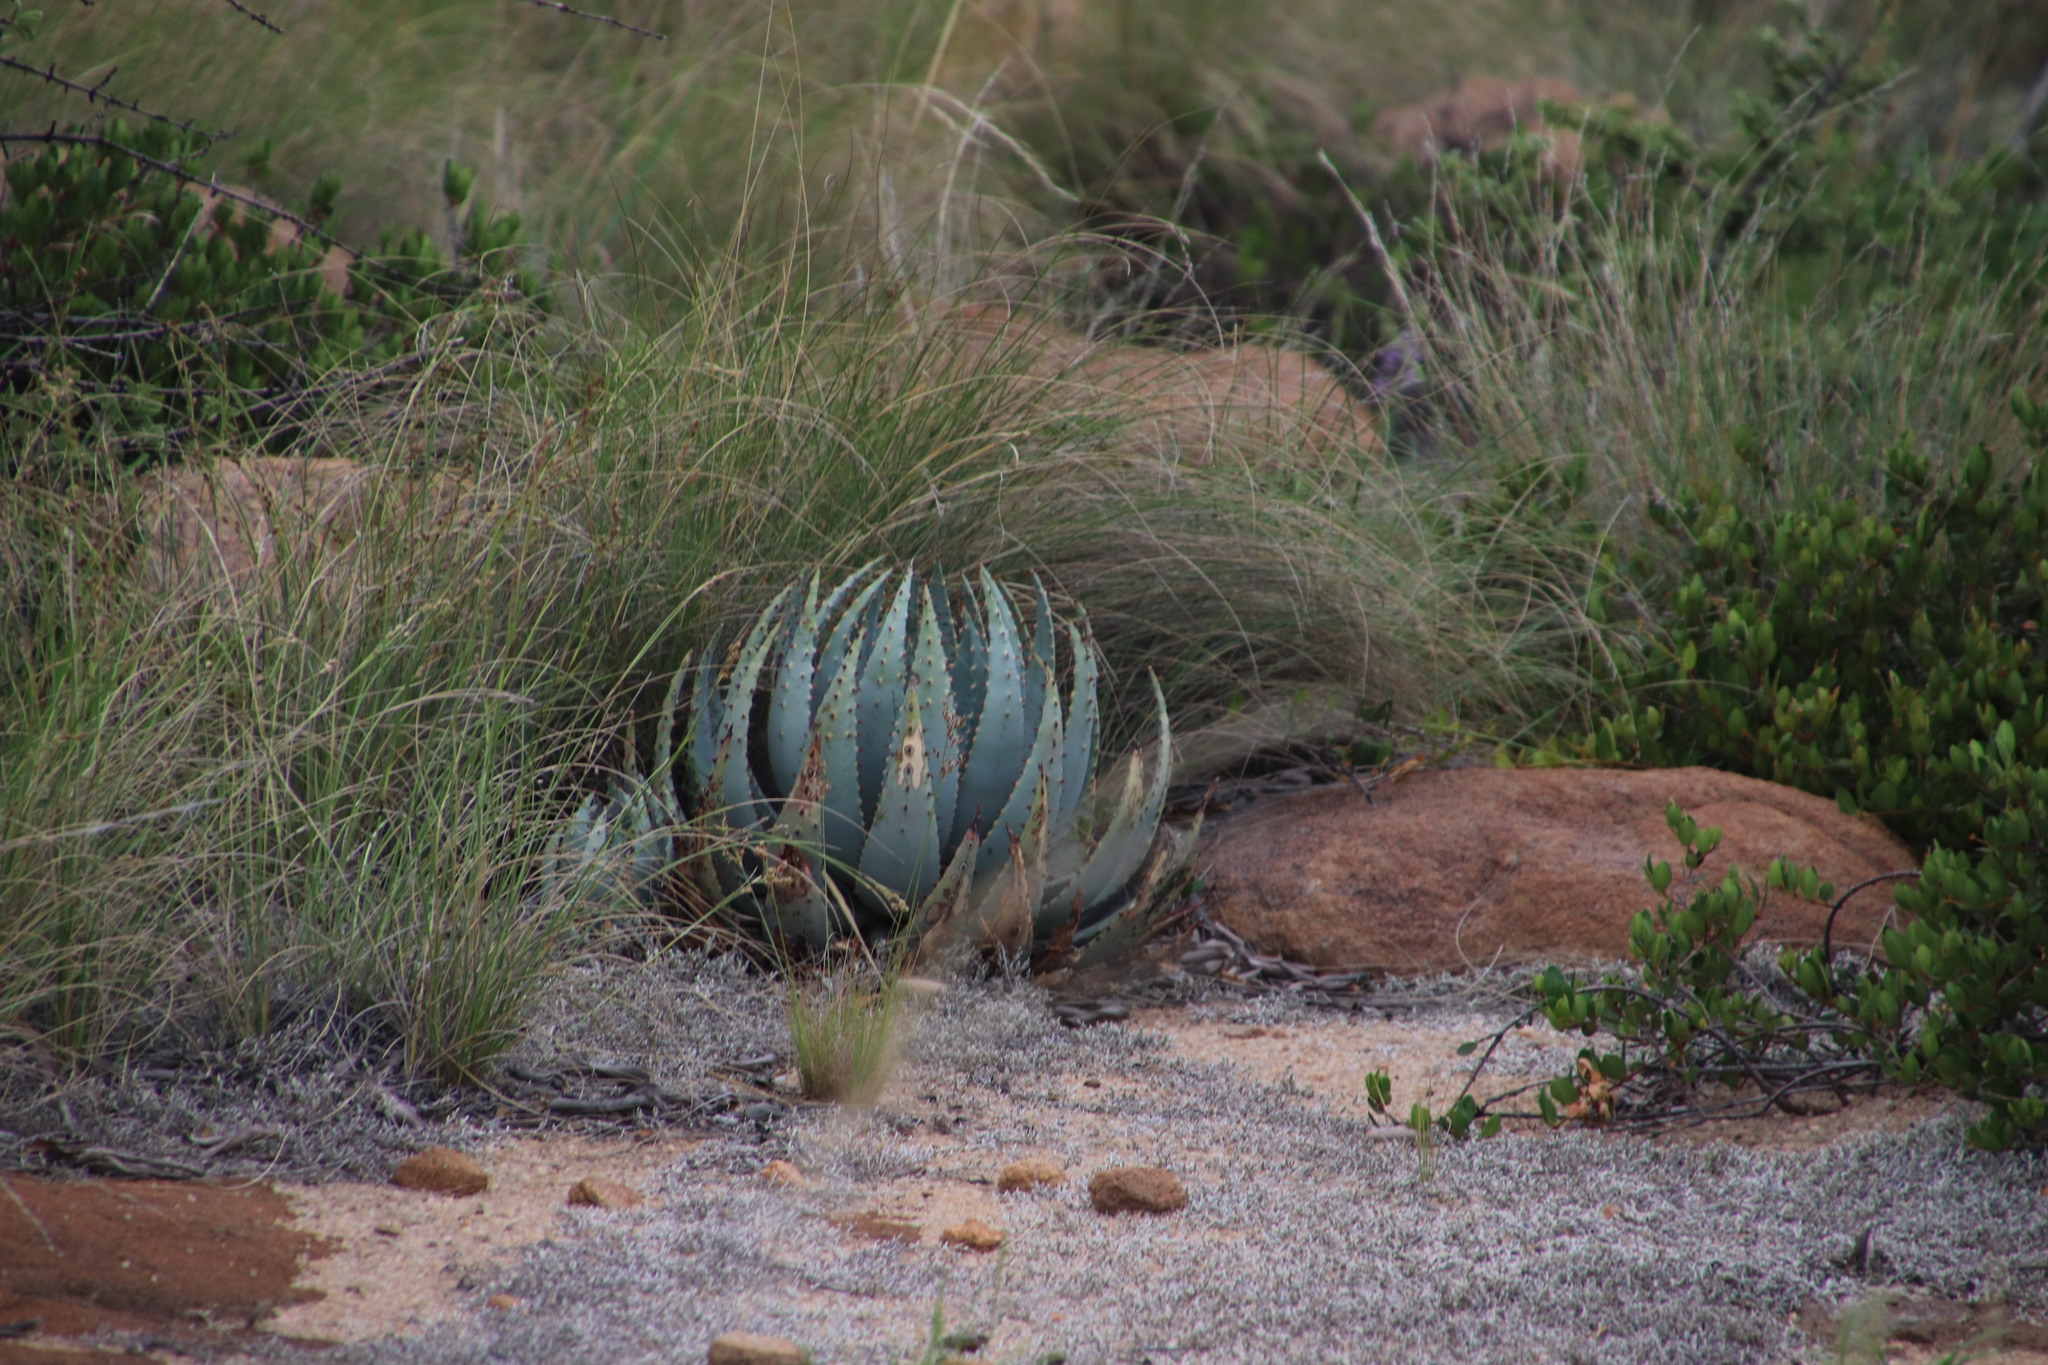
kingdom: Plantae
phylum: Tracheophyta
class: Liliopsida
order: Asparagales
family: Asphodelaceae
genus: Aloe
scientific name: Aloe peglerae
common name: Red-hot poker
